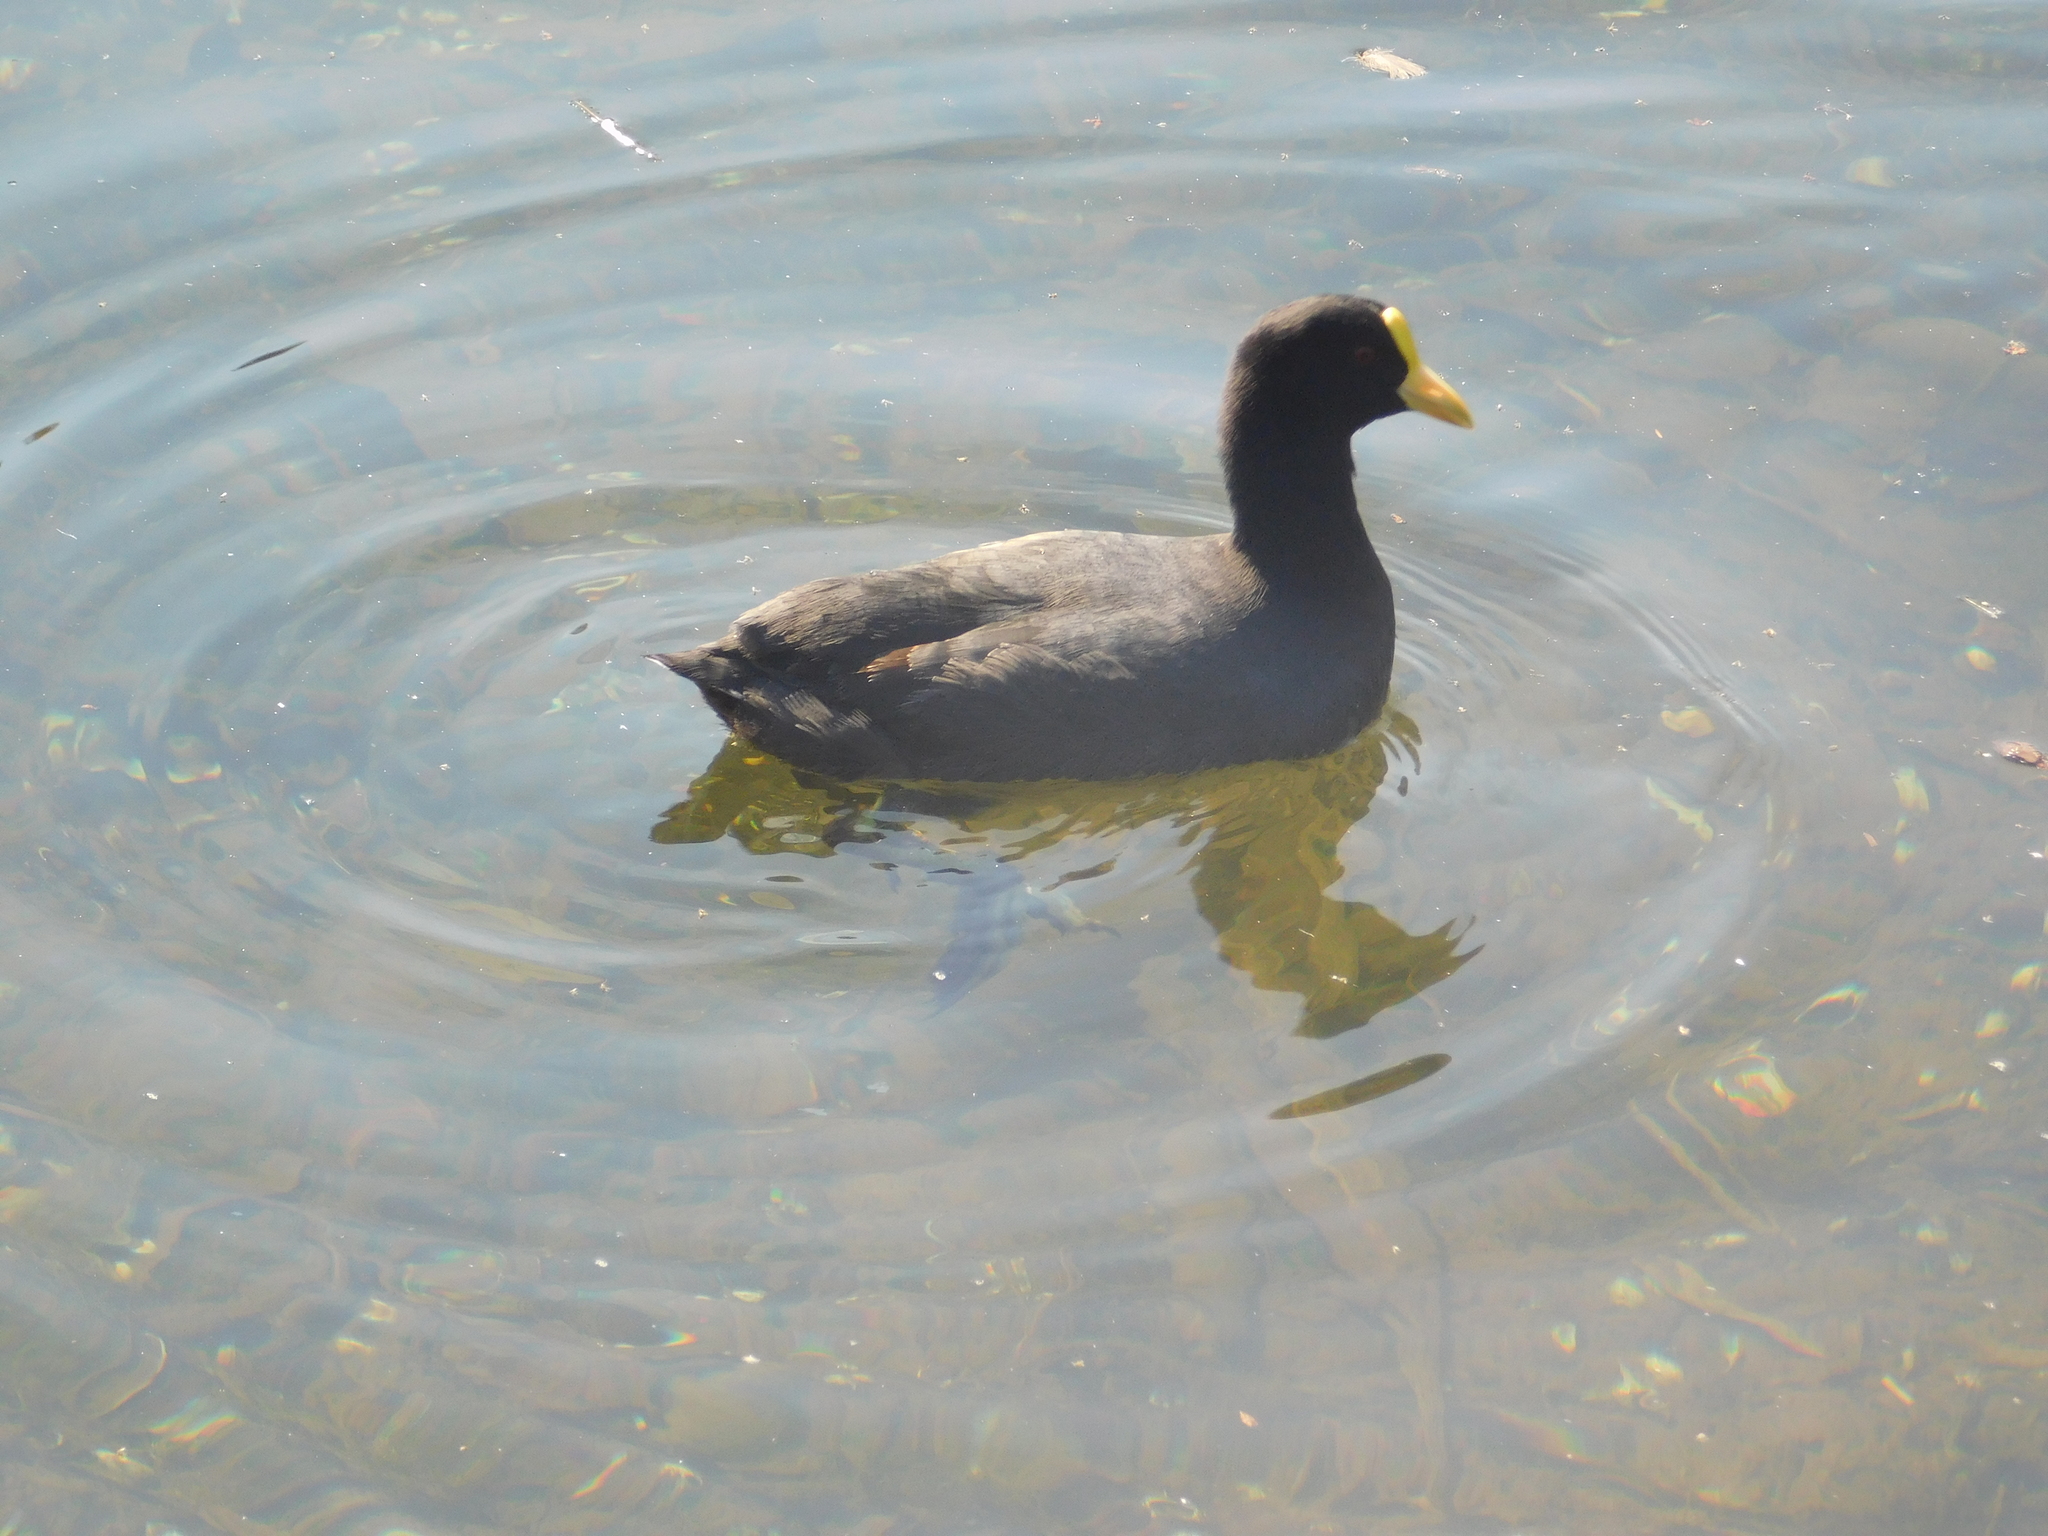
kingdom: Animalia
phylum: Chordata
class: Aves
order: Gruiformes
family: Rallidae
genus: Fulica
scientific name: Fulica leucoptera
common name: White-winged coot
